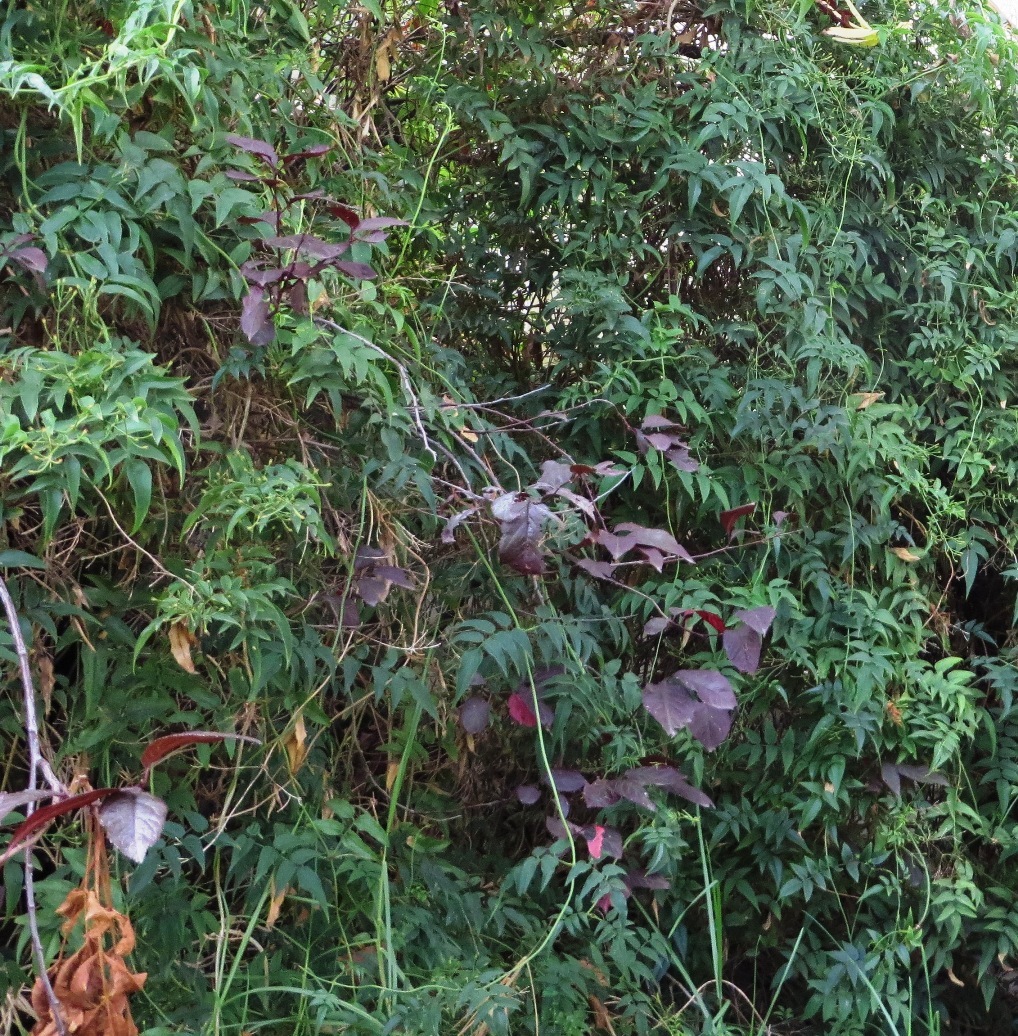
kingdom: Plantae
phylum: Tracheophyta
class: Magnoliopsida
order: Lamiales
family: Oleaceae
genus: Jasminum
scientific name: Jasminum polyanthum
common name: Pink jasmine
